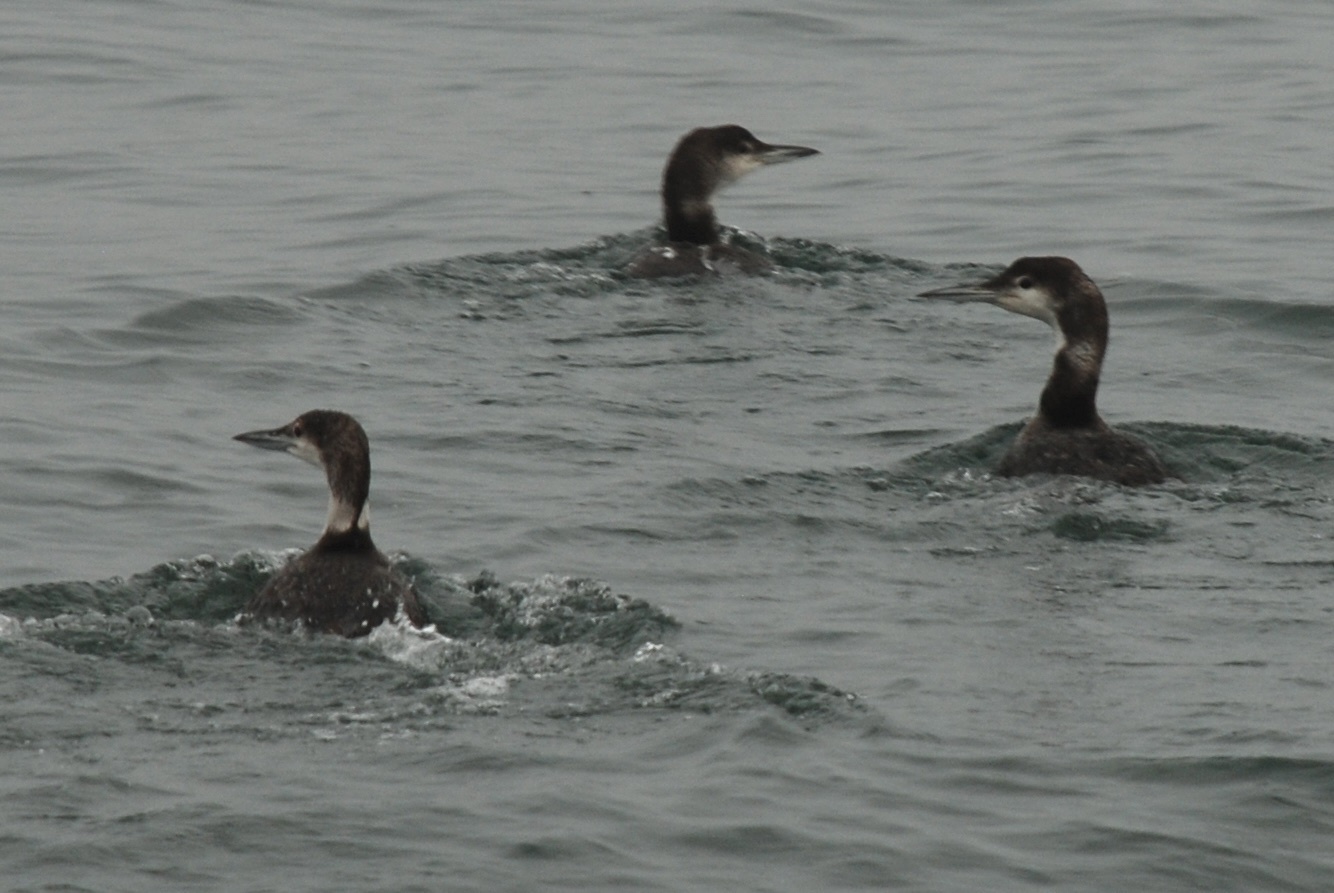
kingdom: Animalia
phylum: Chordata
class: Aves
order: Gaviiformes
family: Gaviidae
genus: Gavia
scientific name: Gavia immer
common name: Common loon
